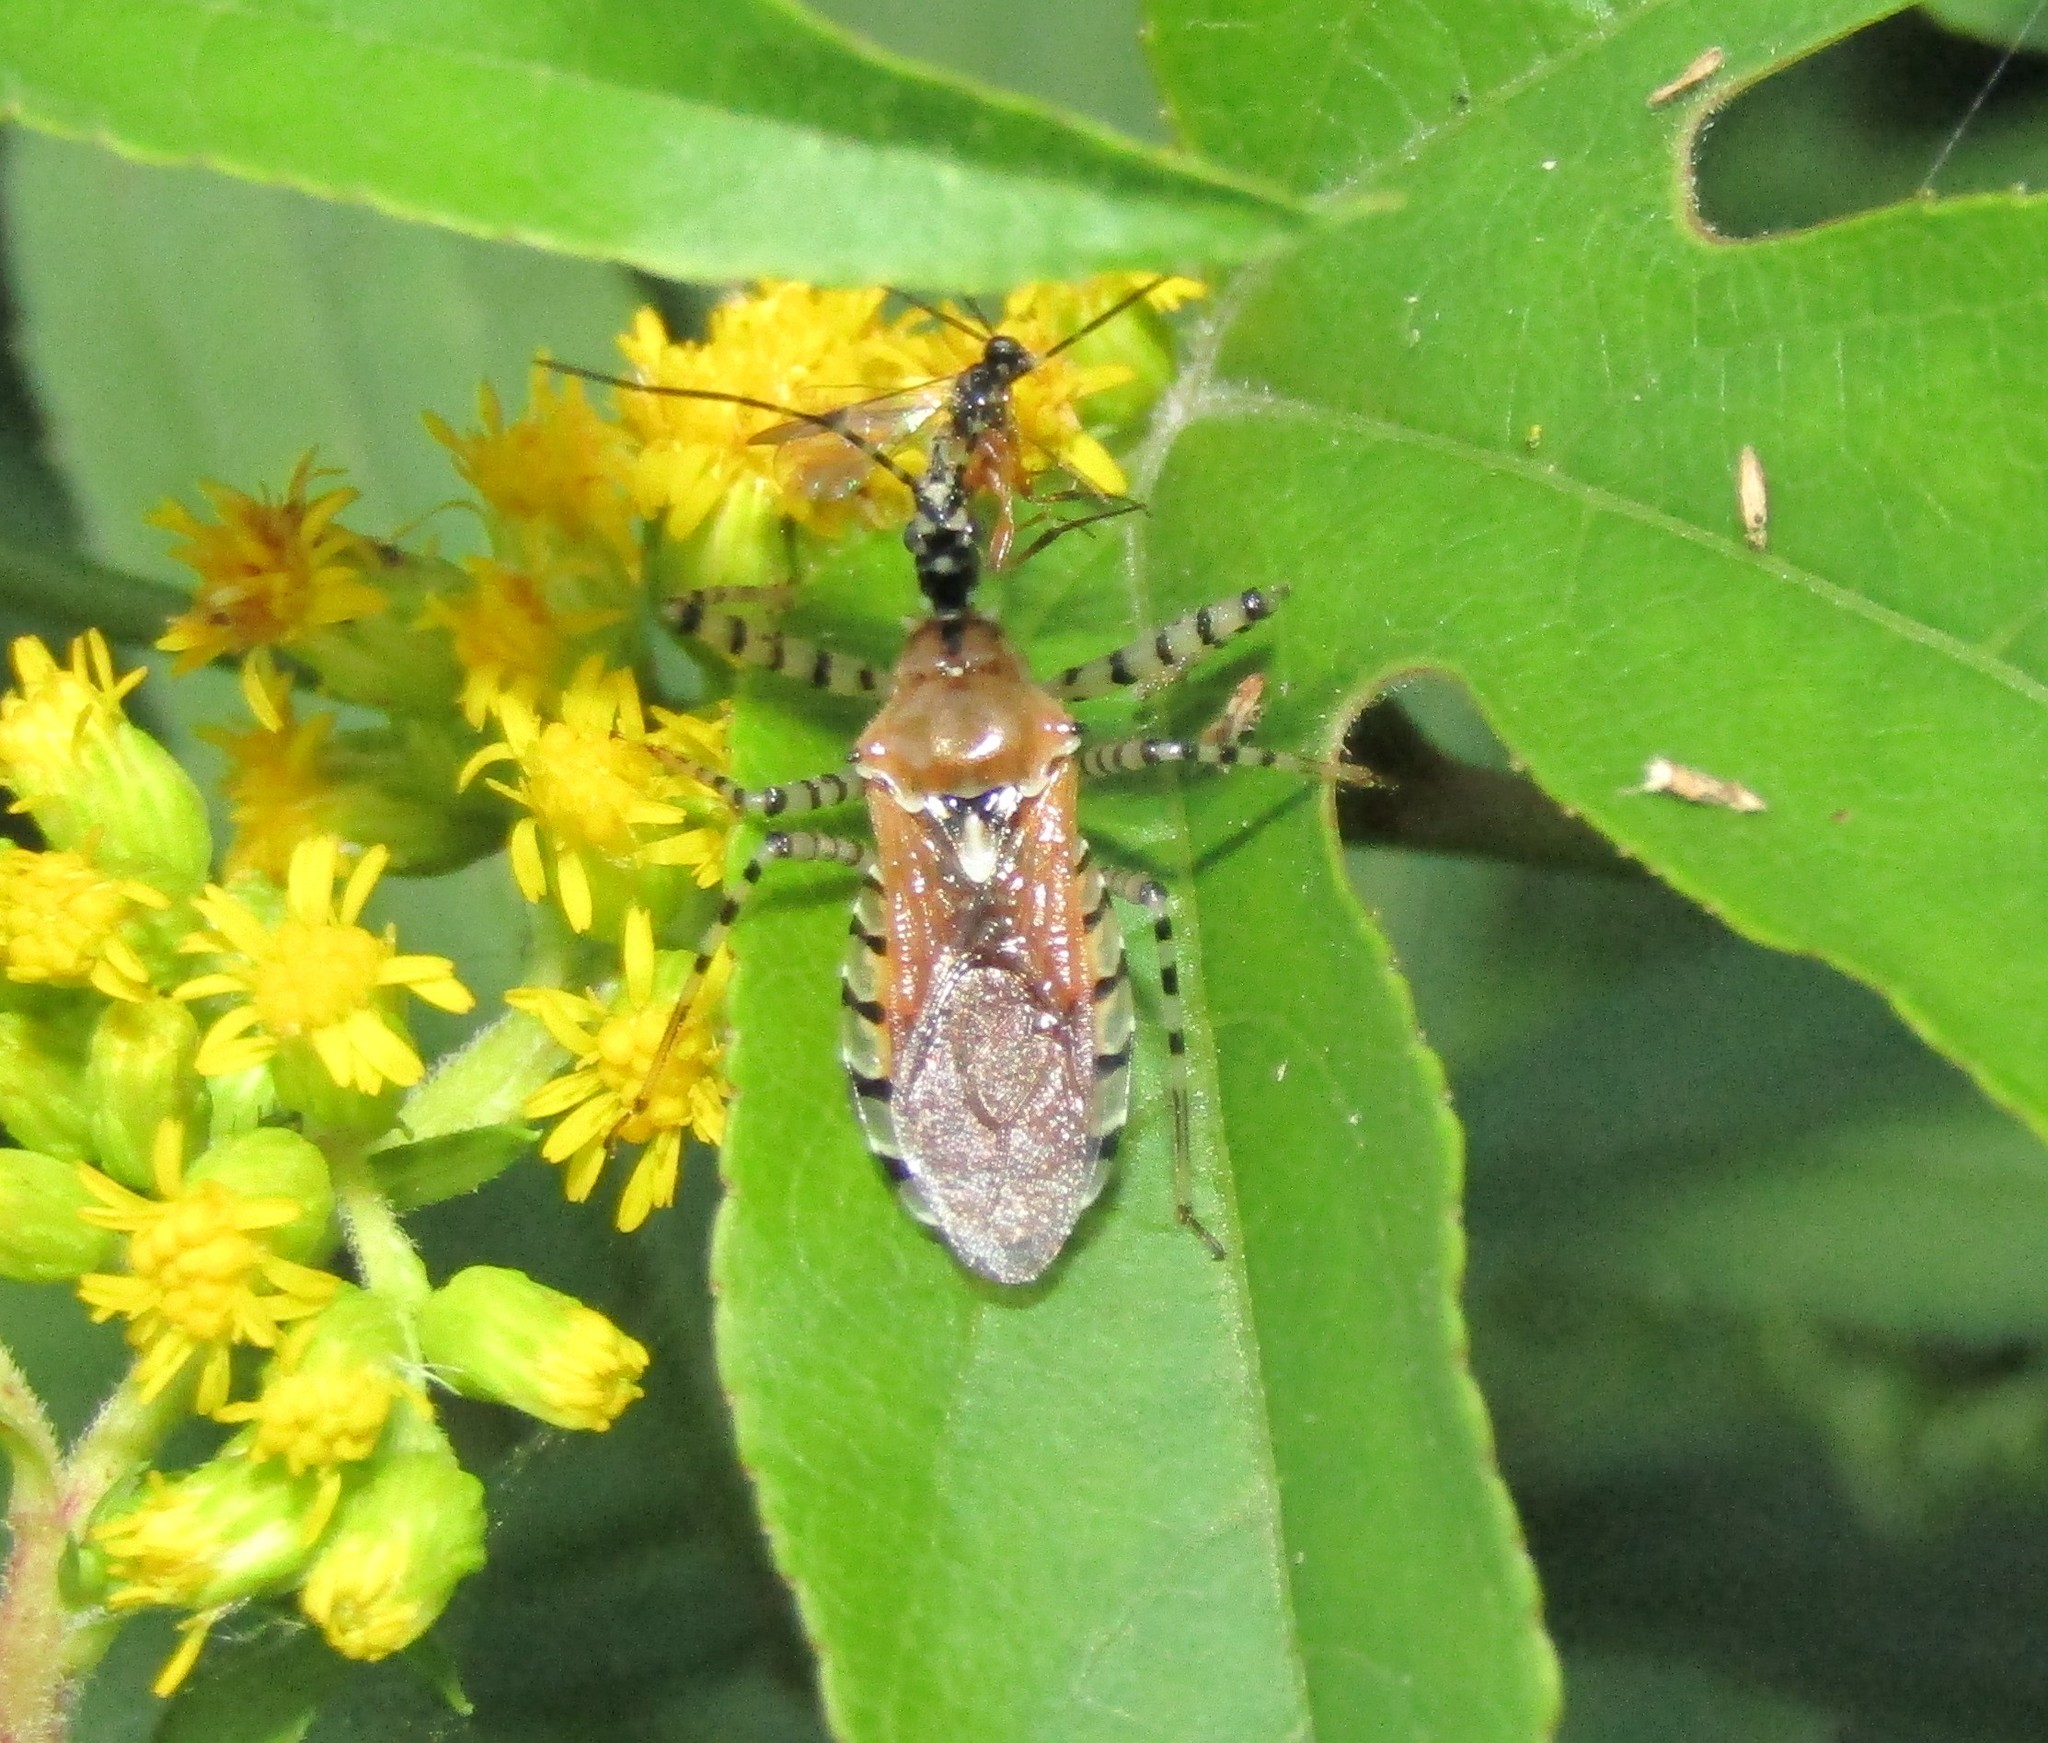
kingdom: Animalia
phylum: Arthropoda
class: Insecta
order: Hemiptera
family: Reduviidae
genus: Pselliopus
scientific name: Pselliopus cinctus
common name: Ringed assassin bug
